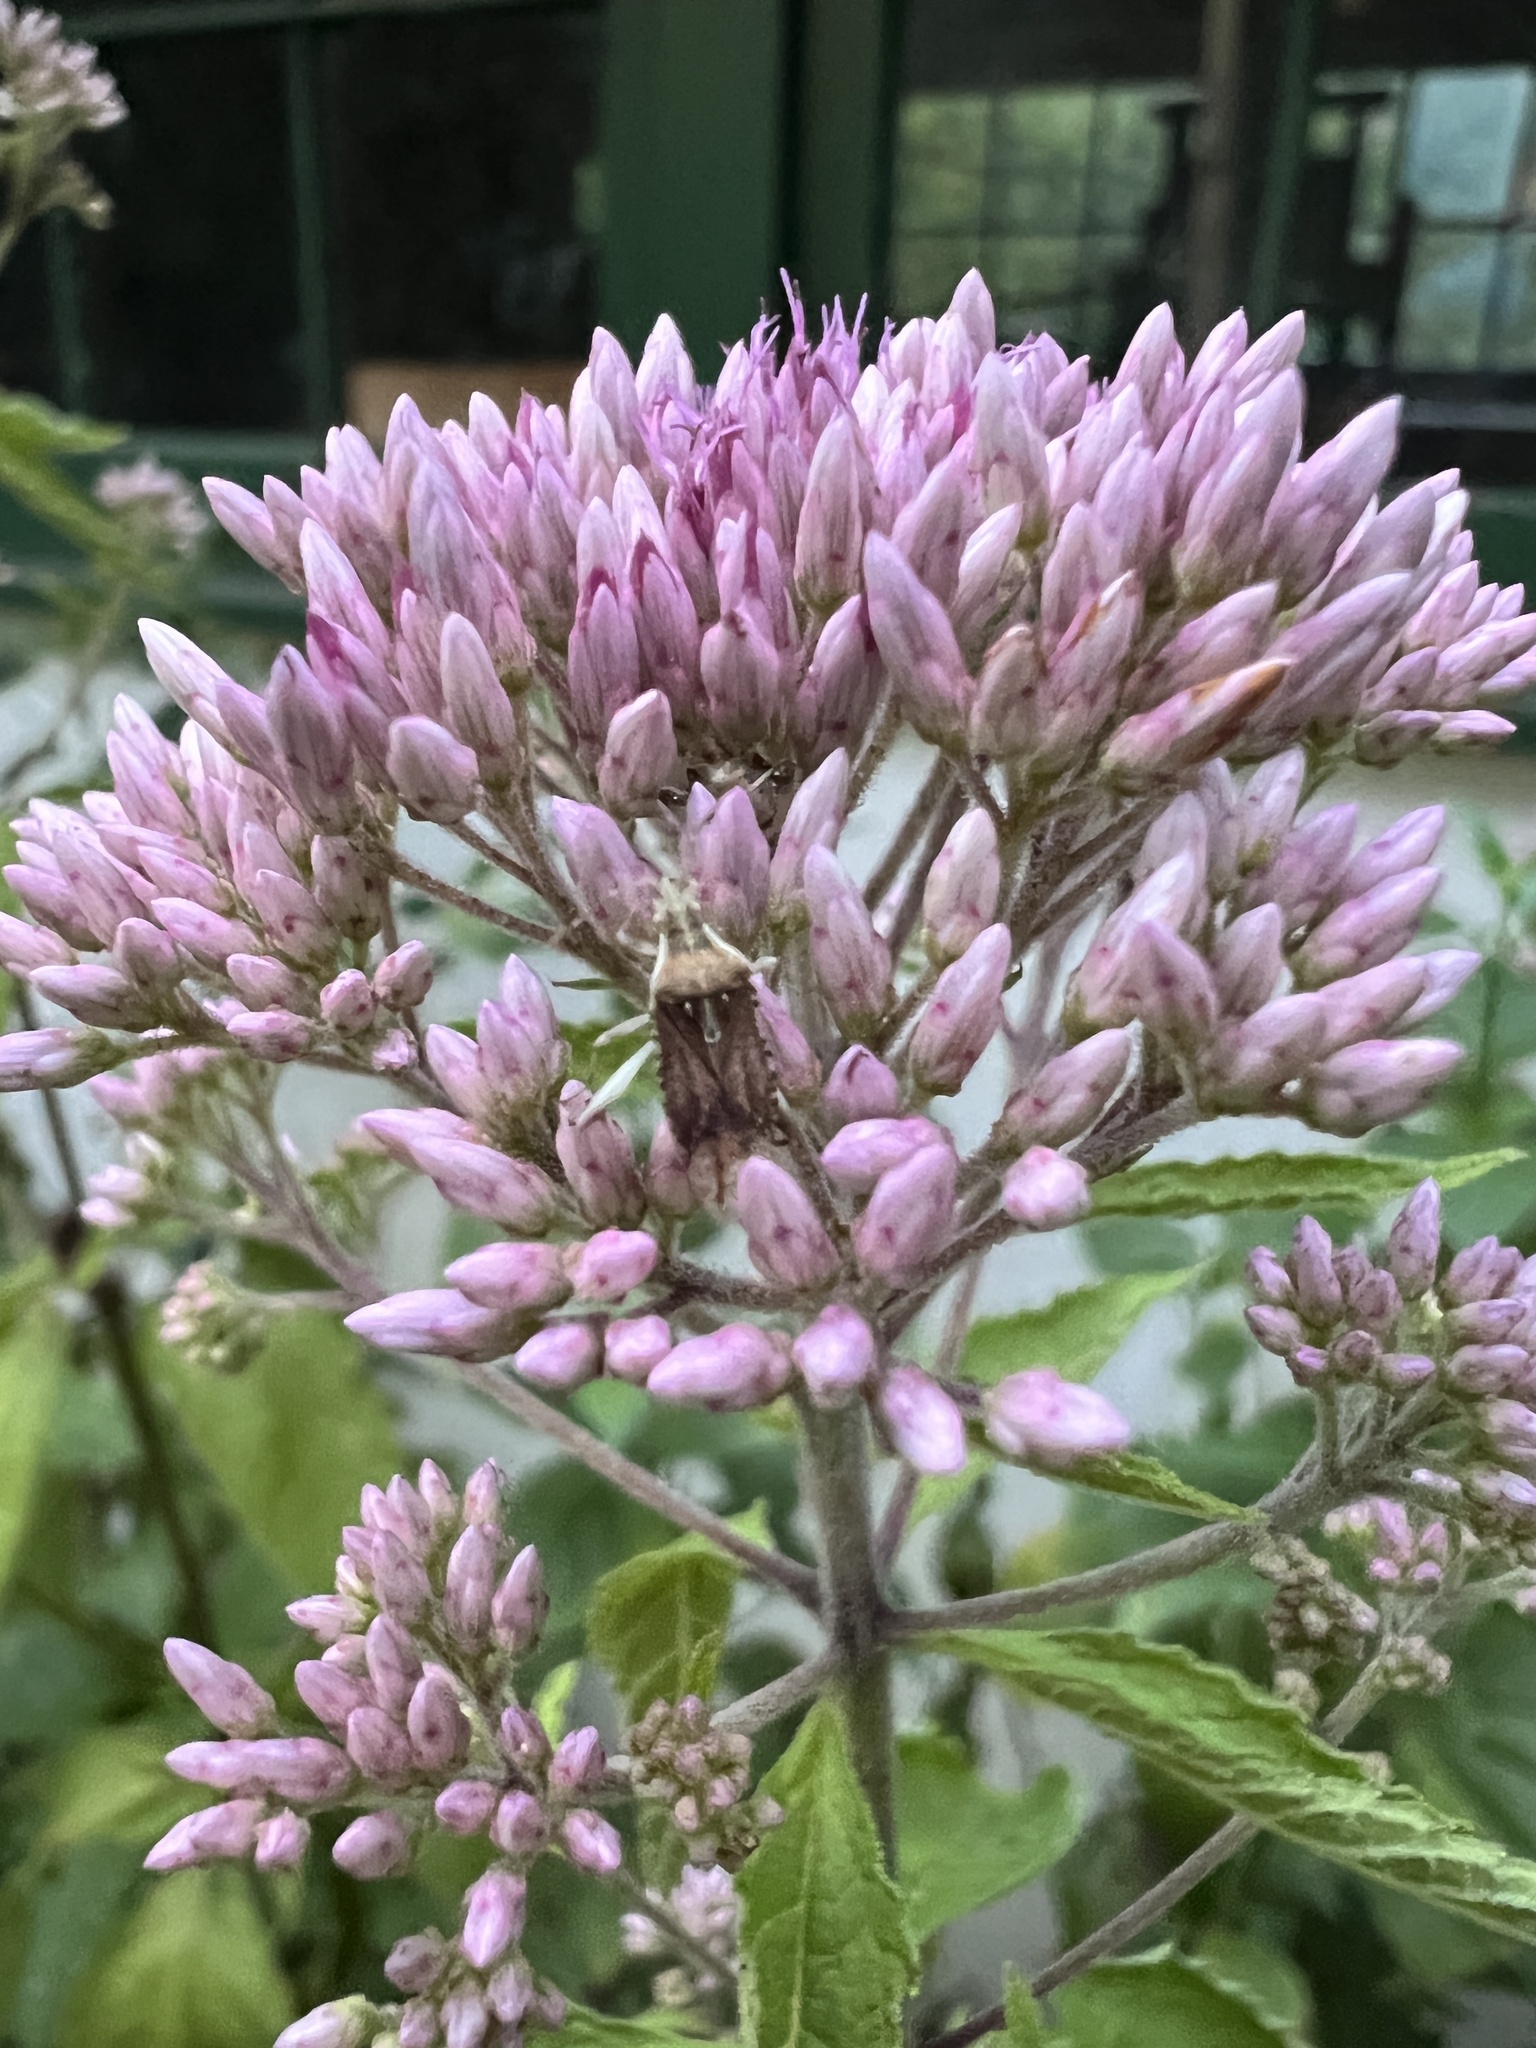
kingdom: Animalia
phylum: Arthropoda
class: Insecta
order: Hemiptera
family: Rhopalidae
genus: Harmostes
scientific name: Harmostes fraterculus
